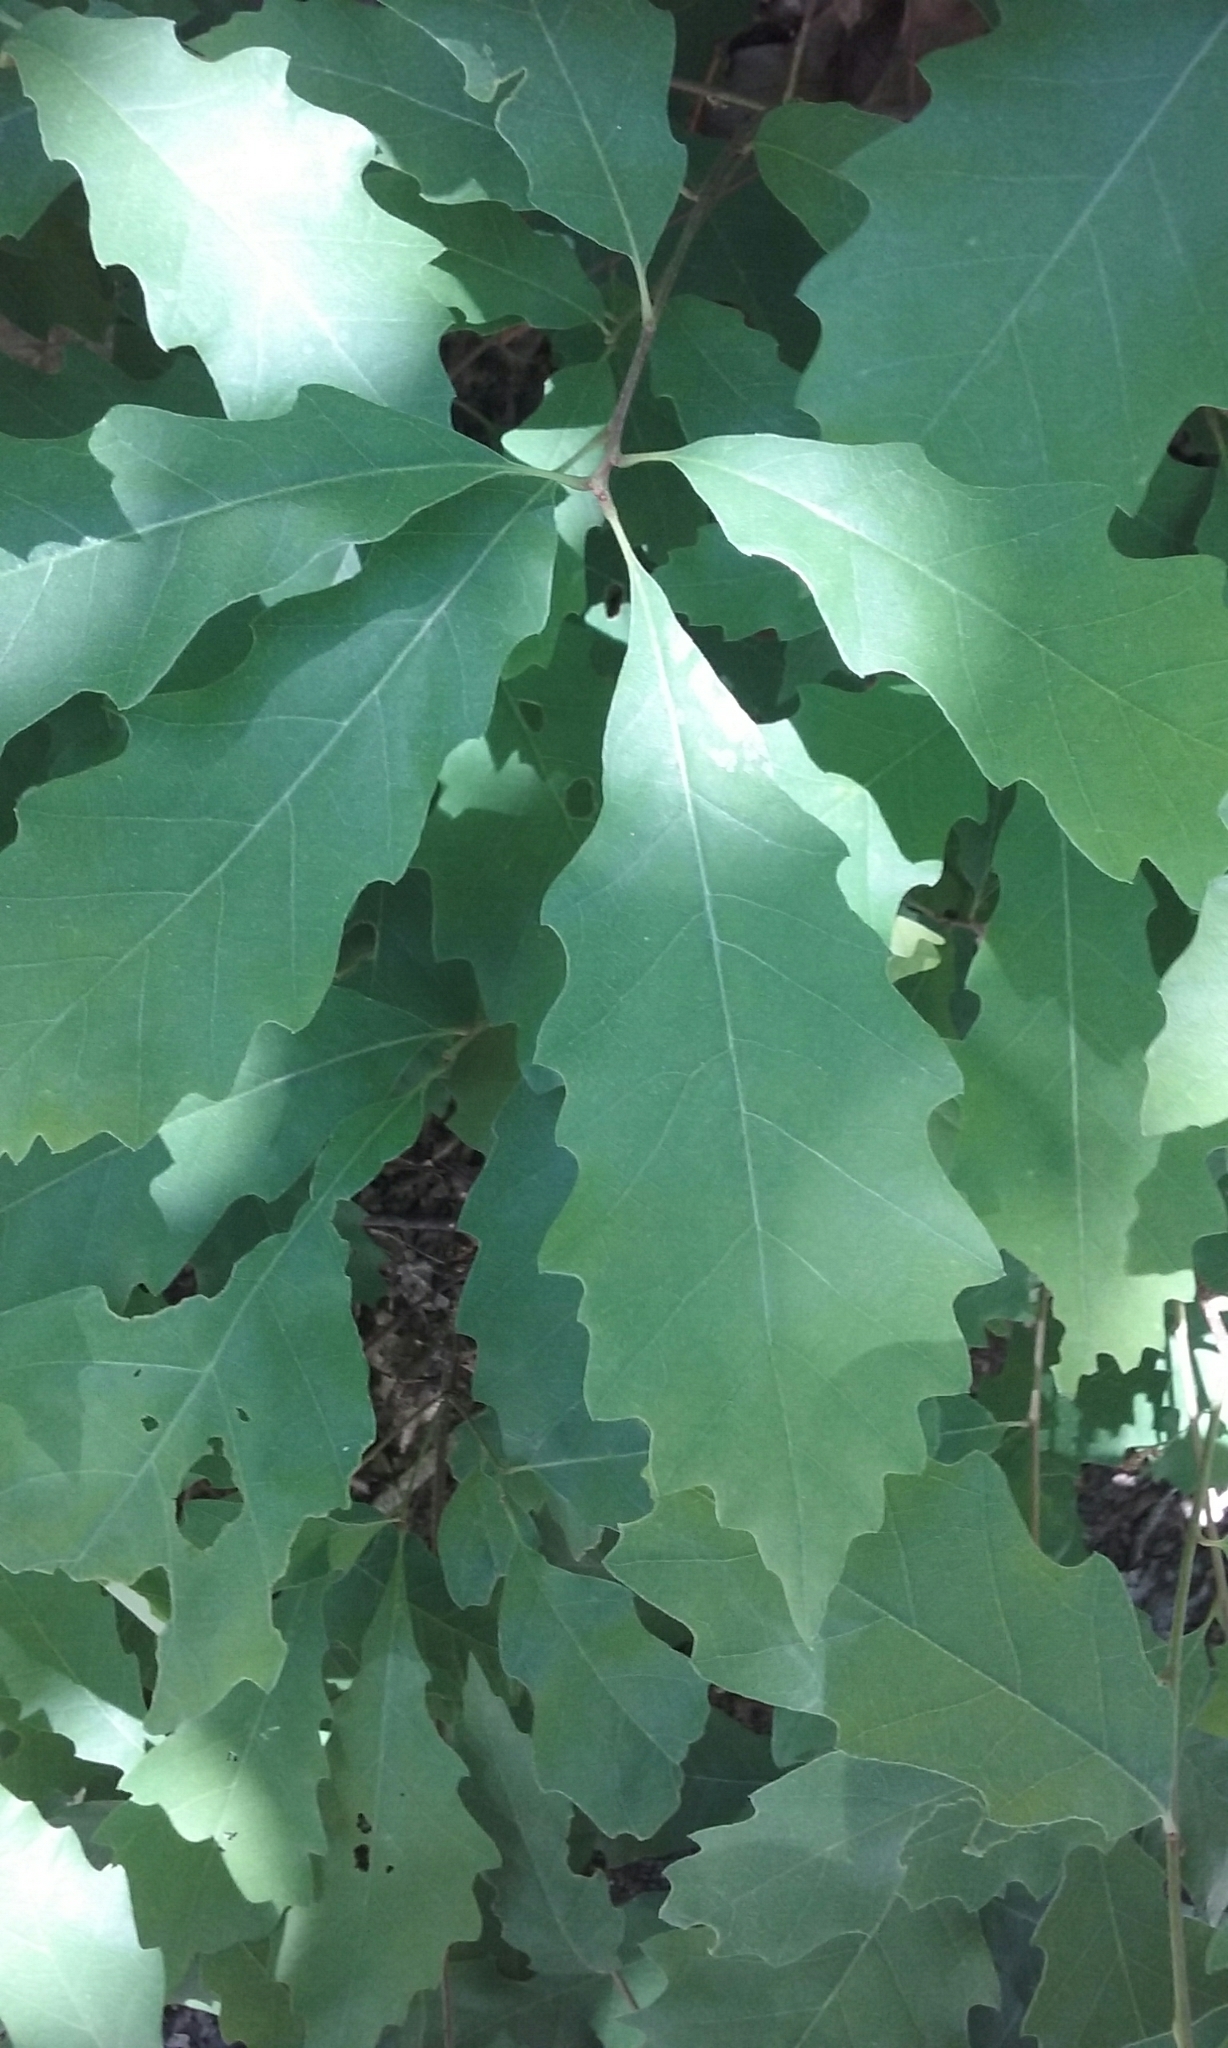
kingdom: Plantae
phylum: Tracheophyta
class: Magnoliopsida
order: Fagales
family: Fagaceae
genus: Quercus
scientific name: Quercus montana
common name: Chestnut oak
